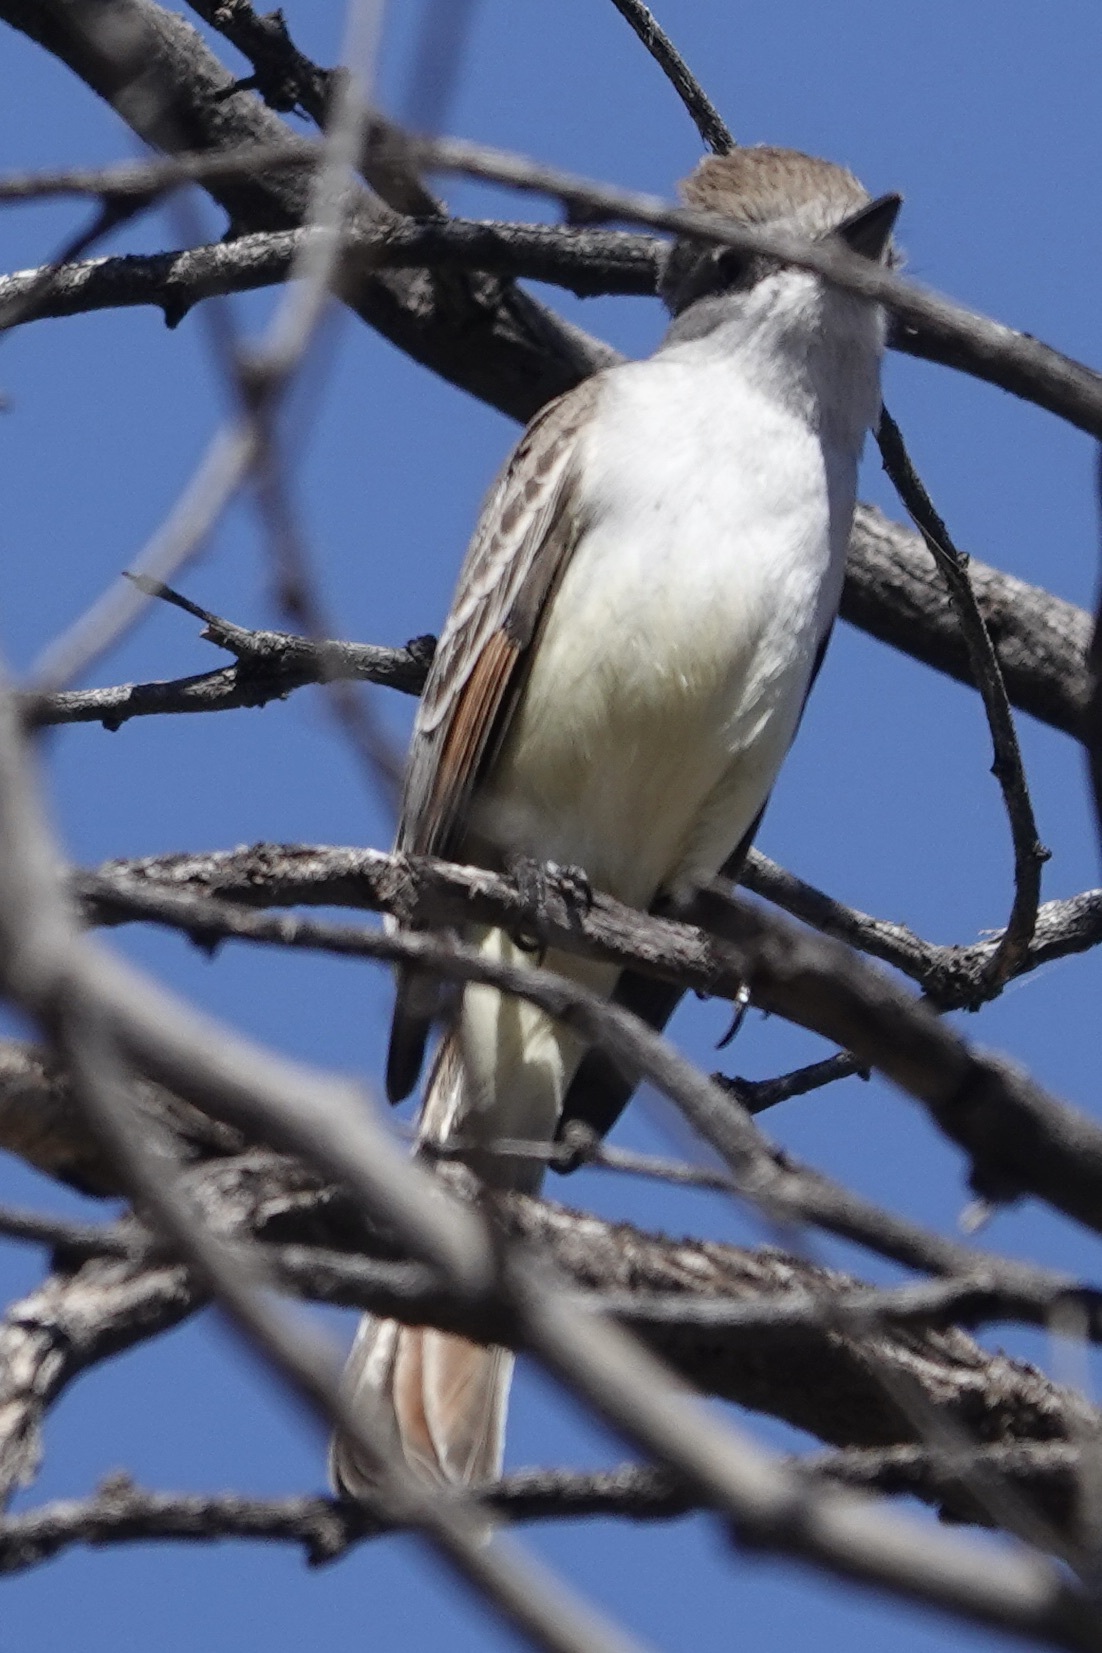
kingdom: Animalia
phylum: Chordata
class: Aves
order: Passeriformes
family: Tyrannidae
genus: Myiarchus
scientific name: Myiarchus cinerascens
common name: Ash-throated flycatcher
